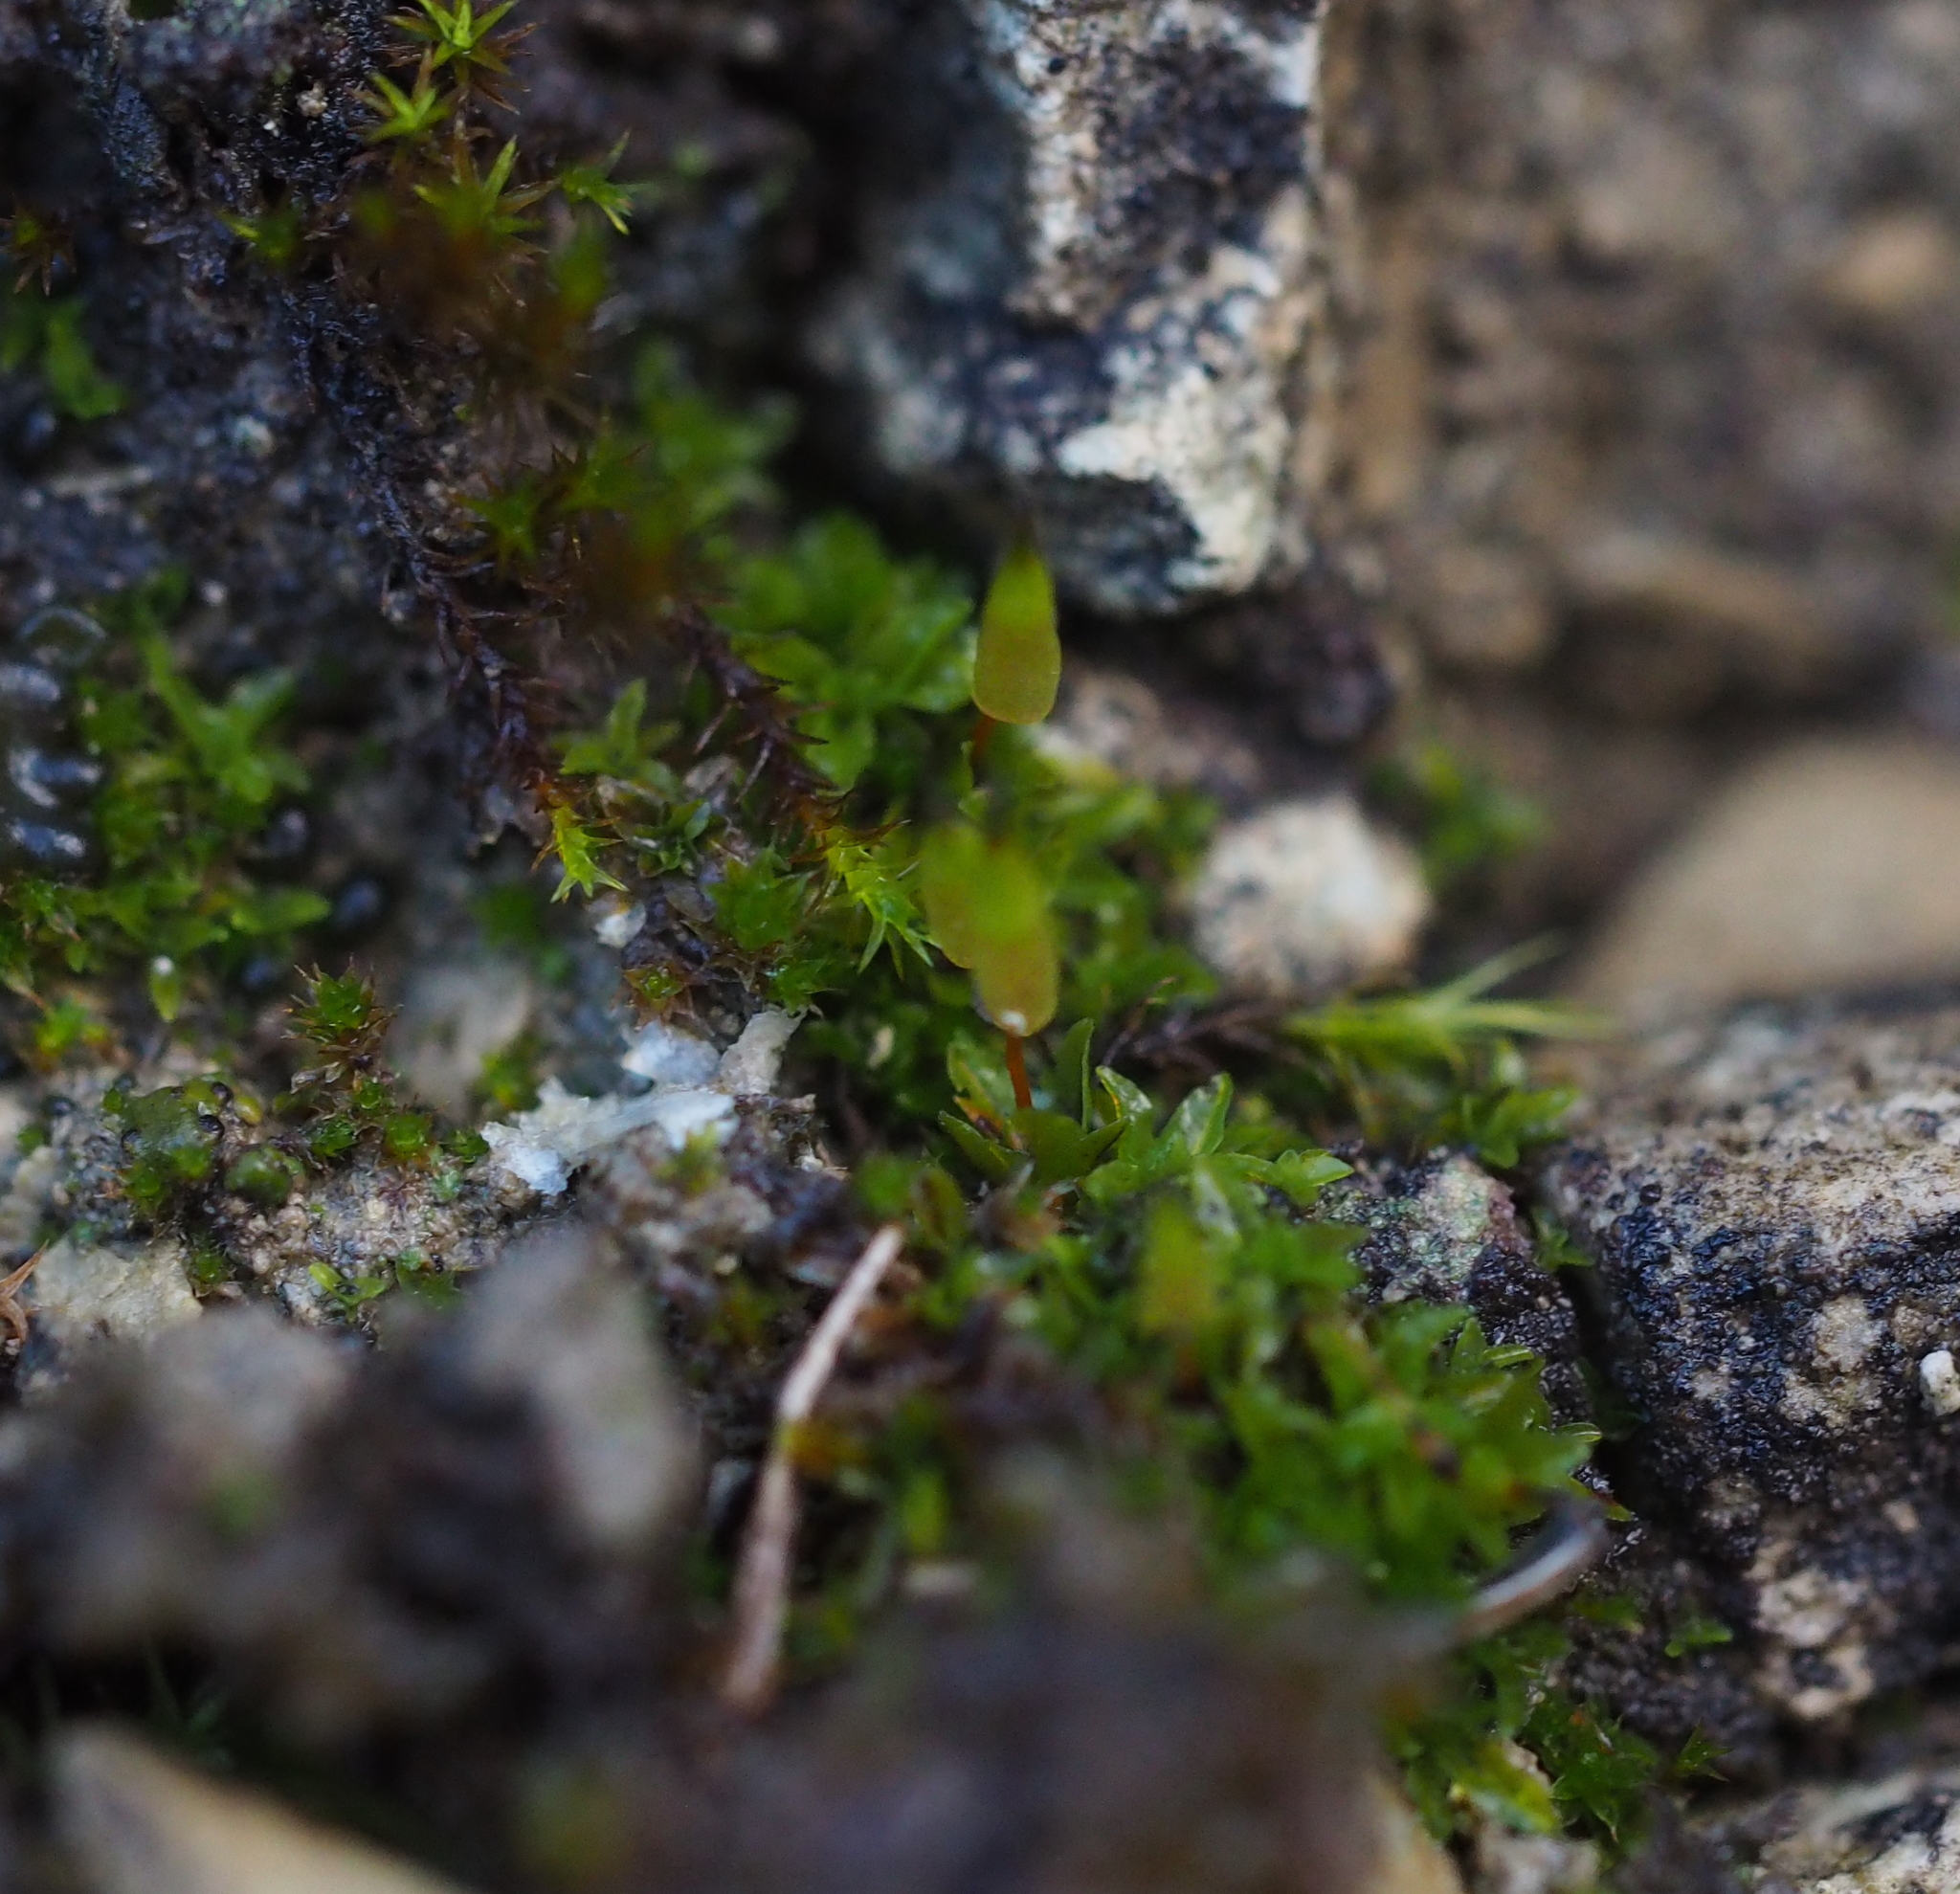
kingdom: Plantae
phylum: Bryophyta
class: Bryopsida
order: Encalyptales
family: Encalyptaceae
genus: Encalypta
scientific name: Encalypta vulgaris
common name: Common extinguisher-moss
